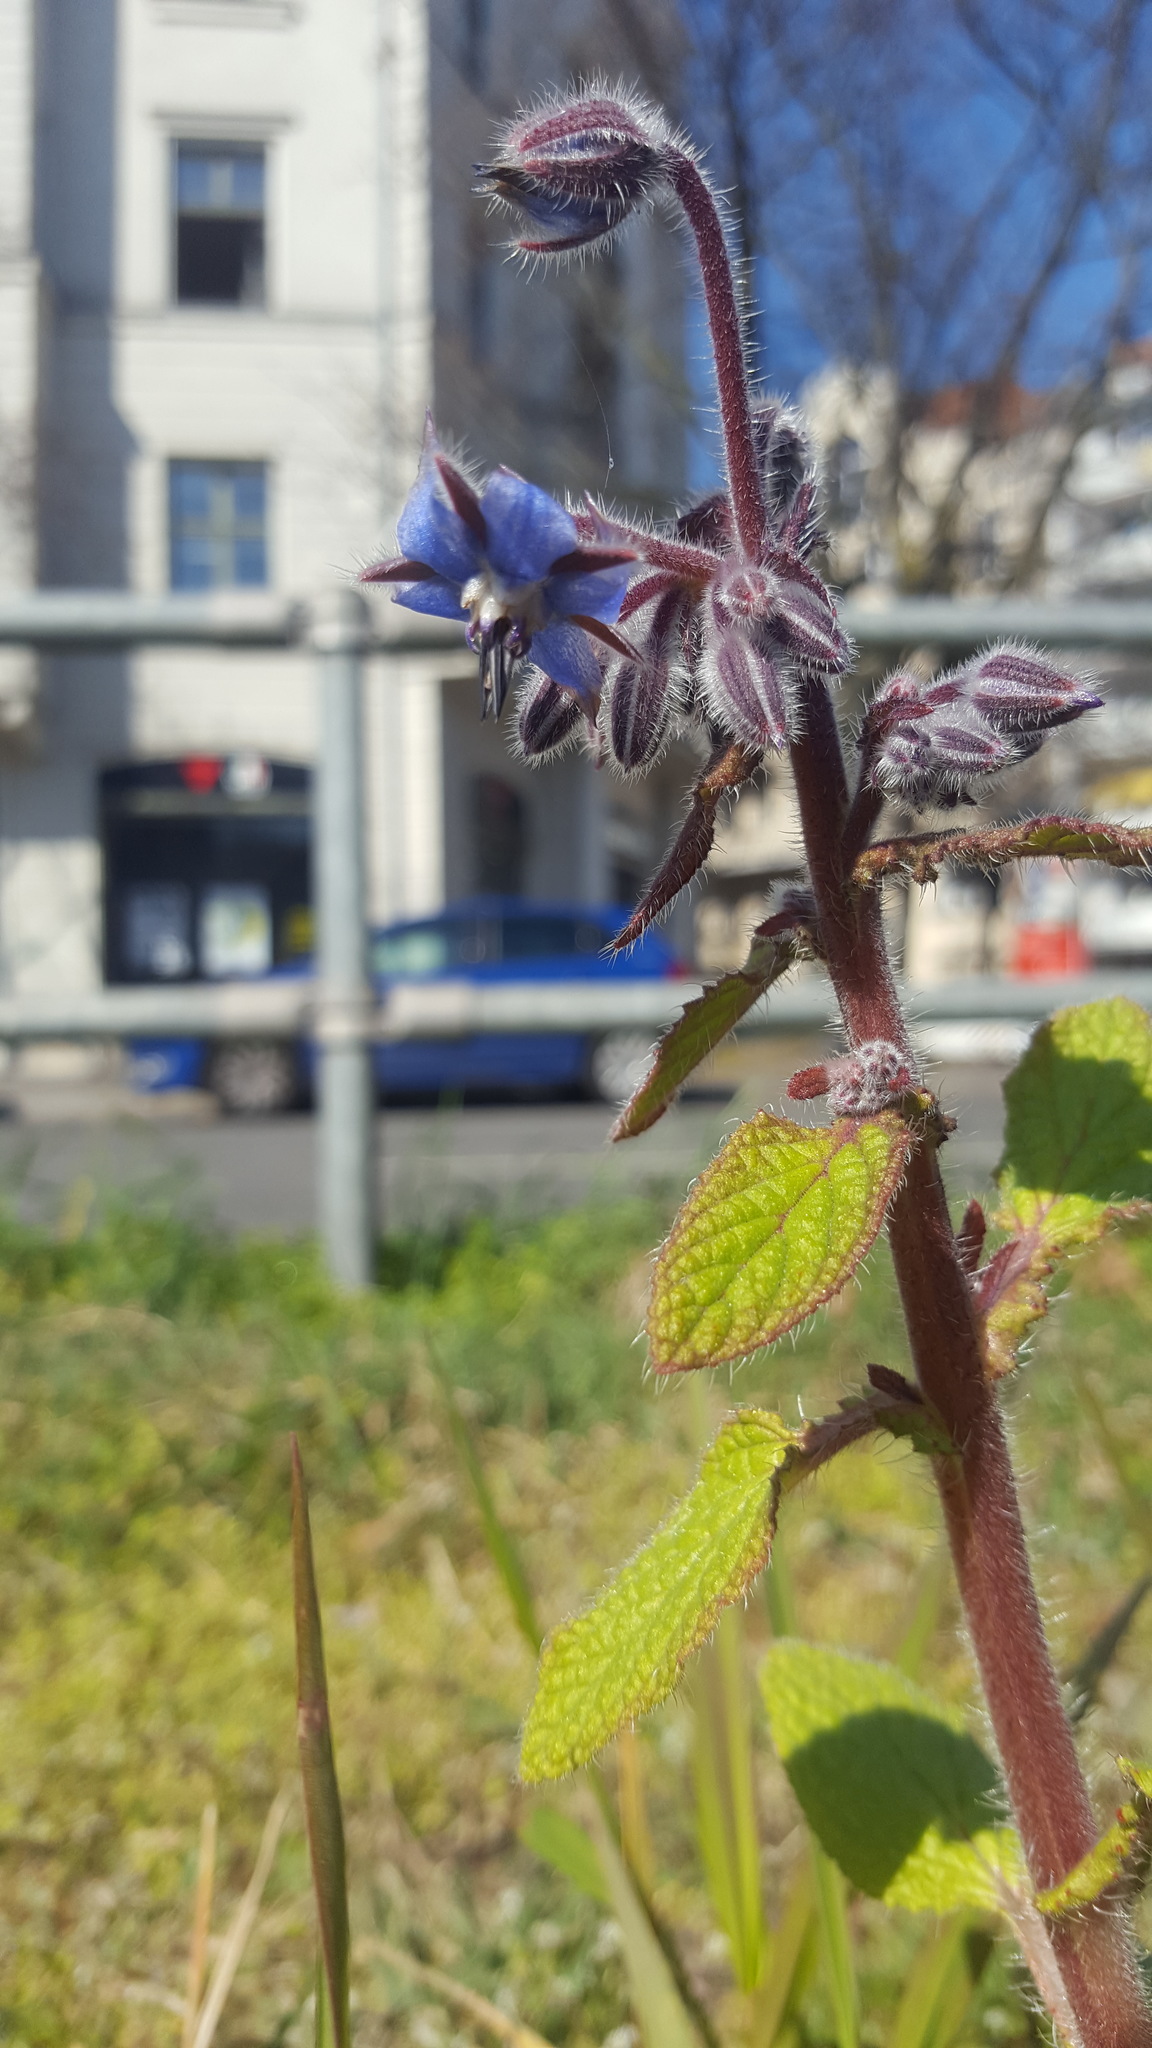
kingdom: Plantae
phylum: Tracheophyta
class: Magnoliopsida
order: Boraginales
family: Boraginaceae
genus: Borago
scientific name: Borago officinalis
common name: Borage
